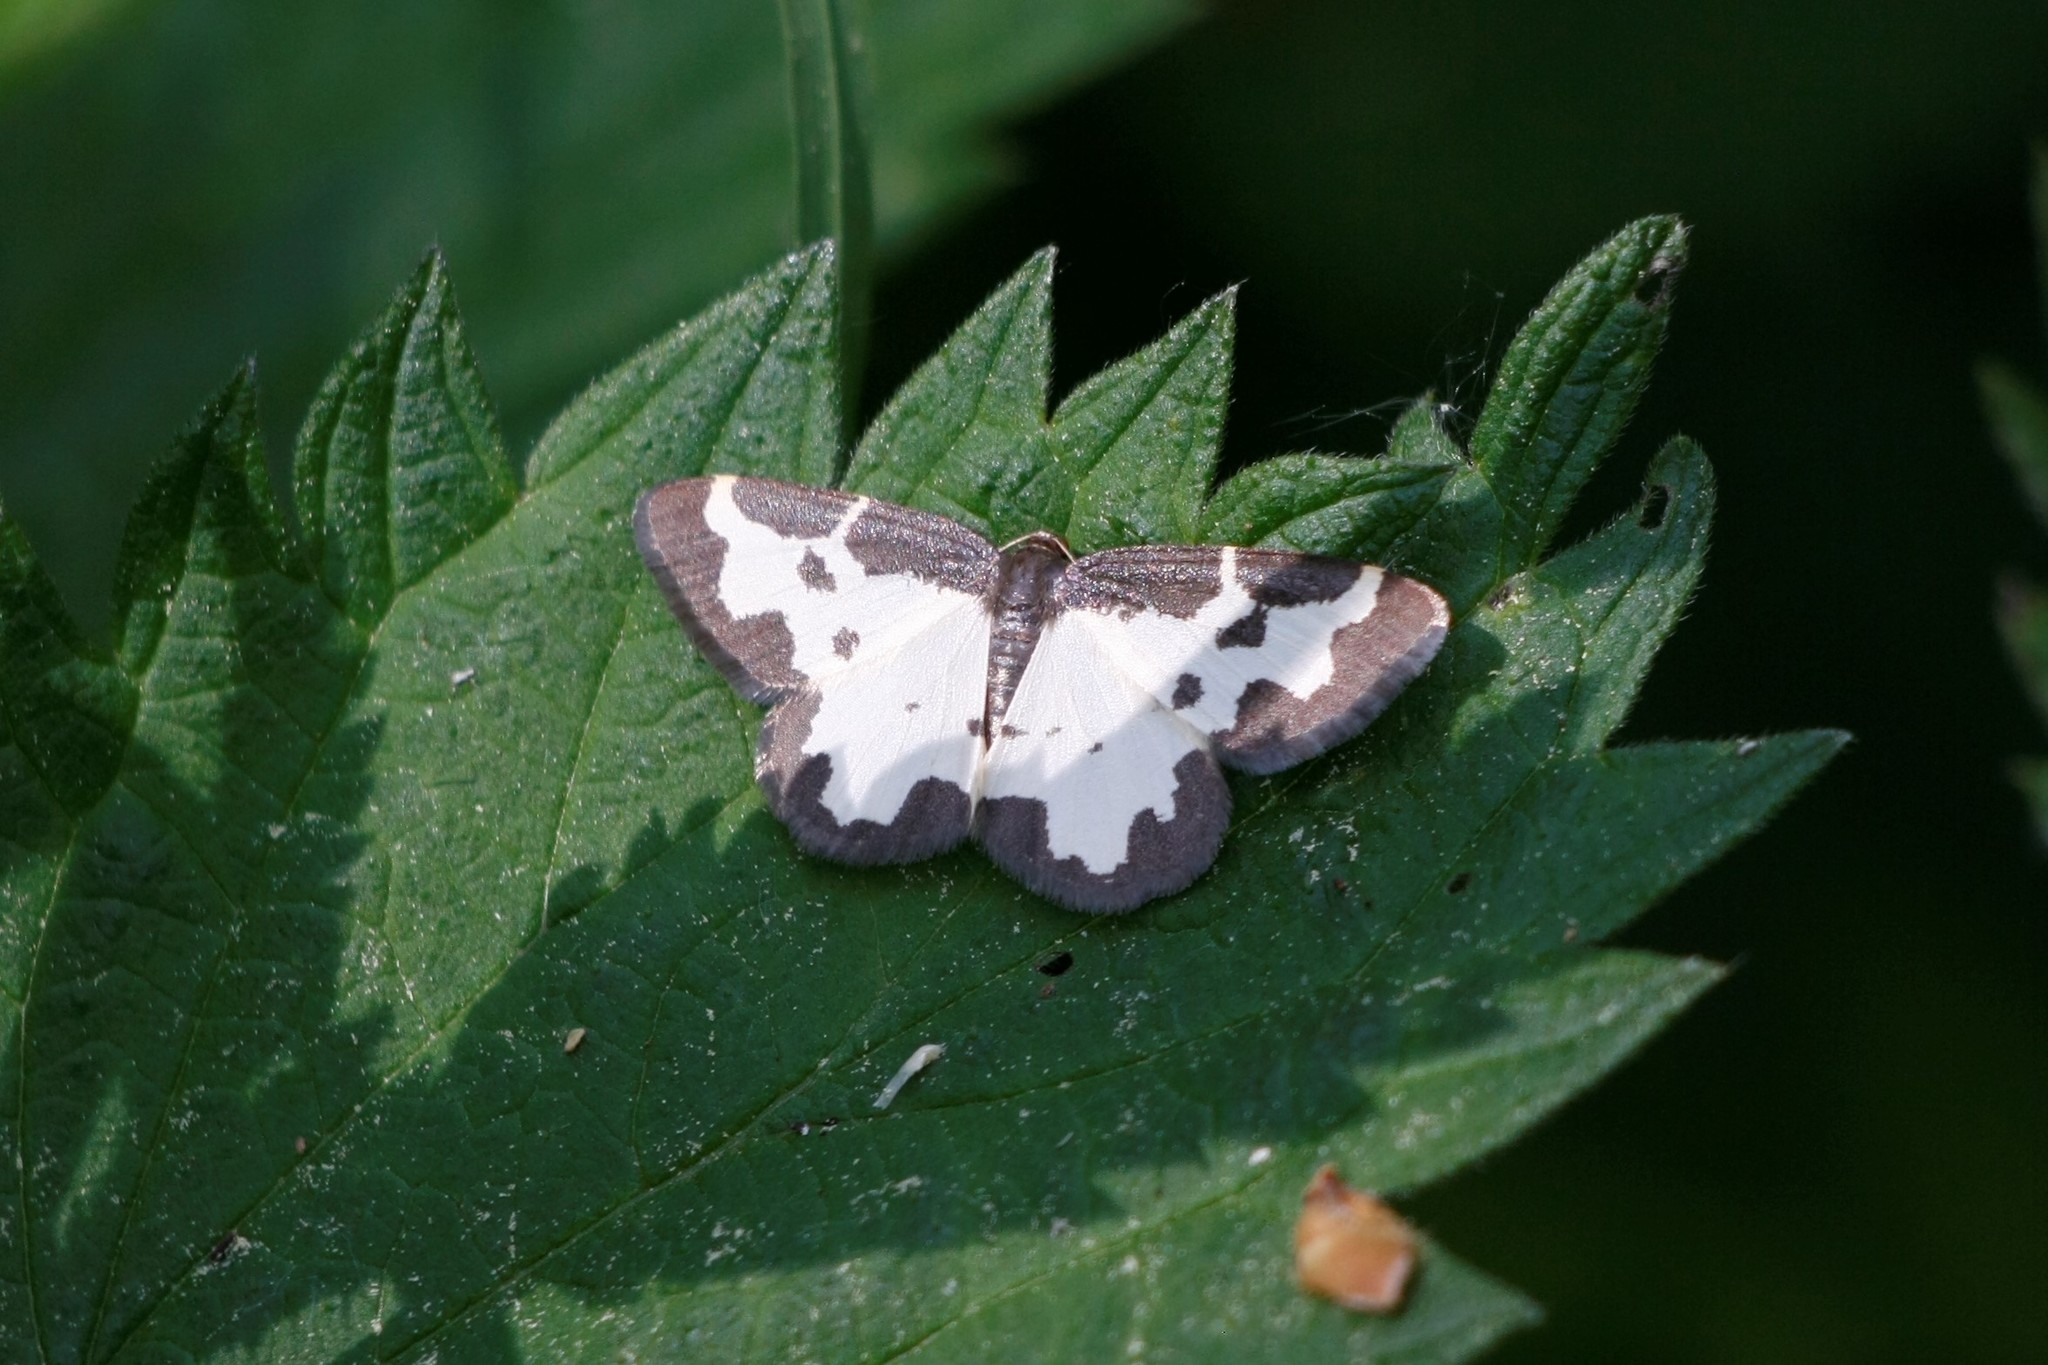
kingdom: Animalia
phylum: Arthropoda
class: Insecta
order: Lepidoptera
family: Geometridae
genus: Lomaspilis
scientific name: Lomaspilis marginata
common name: Clouded border
